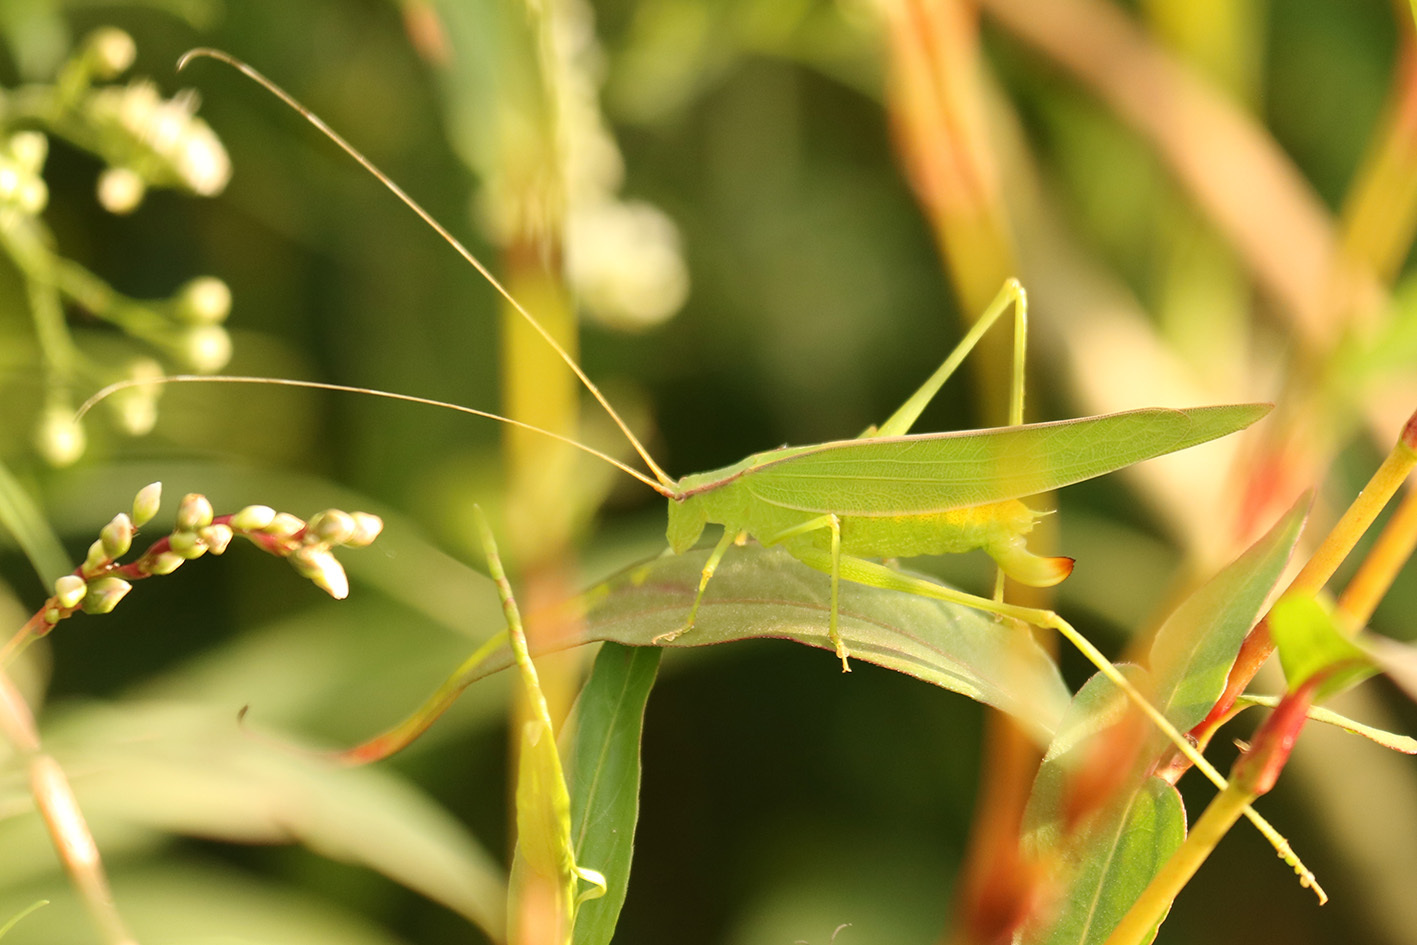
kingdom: Animalia
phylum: Arthropoda
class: Insecta
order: Orthoptera
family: Tettigoniidae
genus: Hyperophora
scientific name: Hyperophora major
